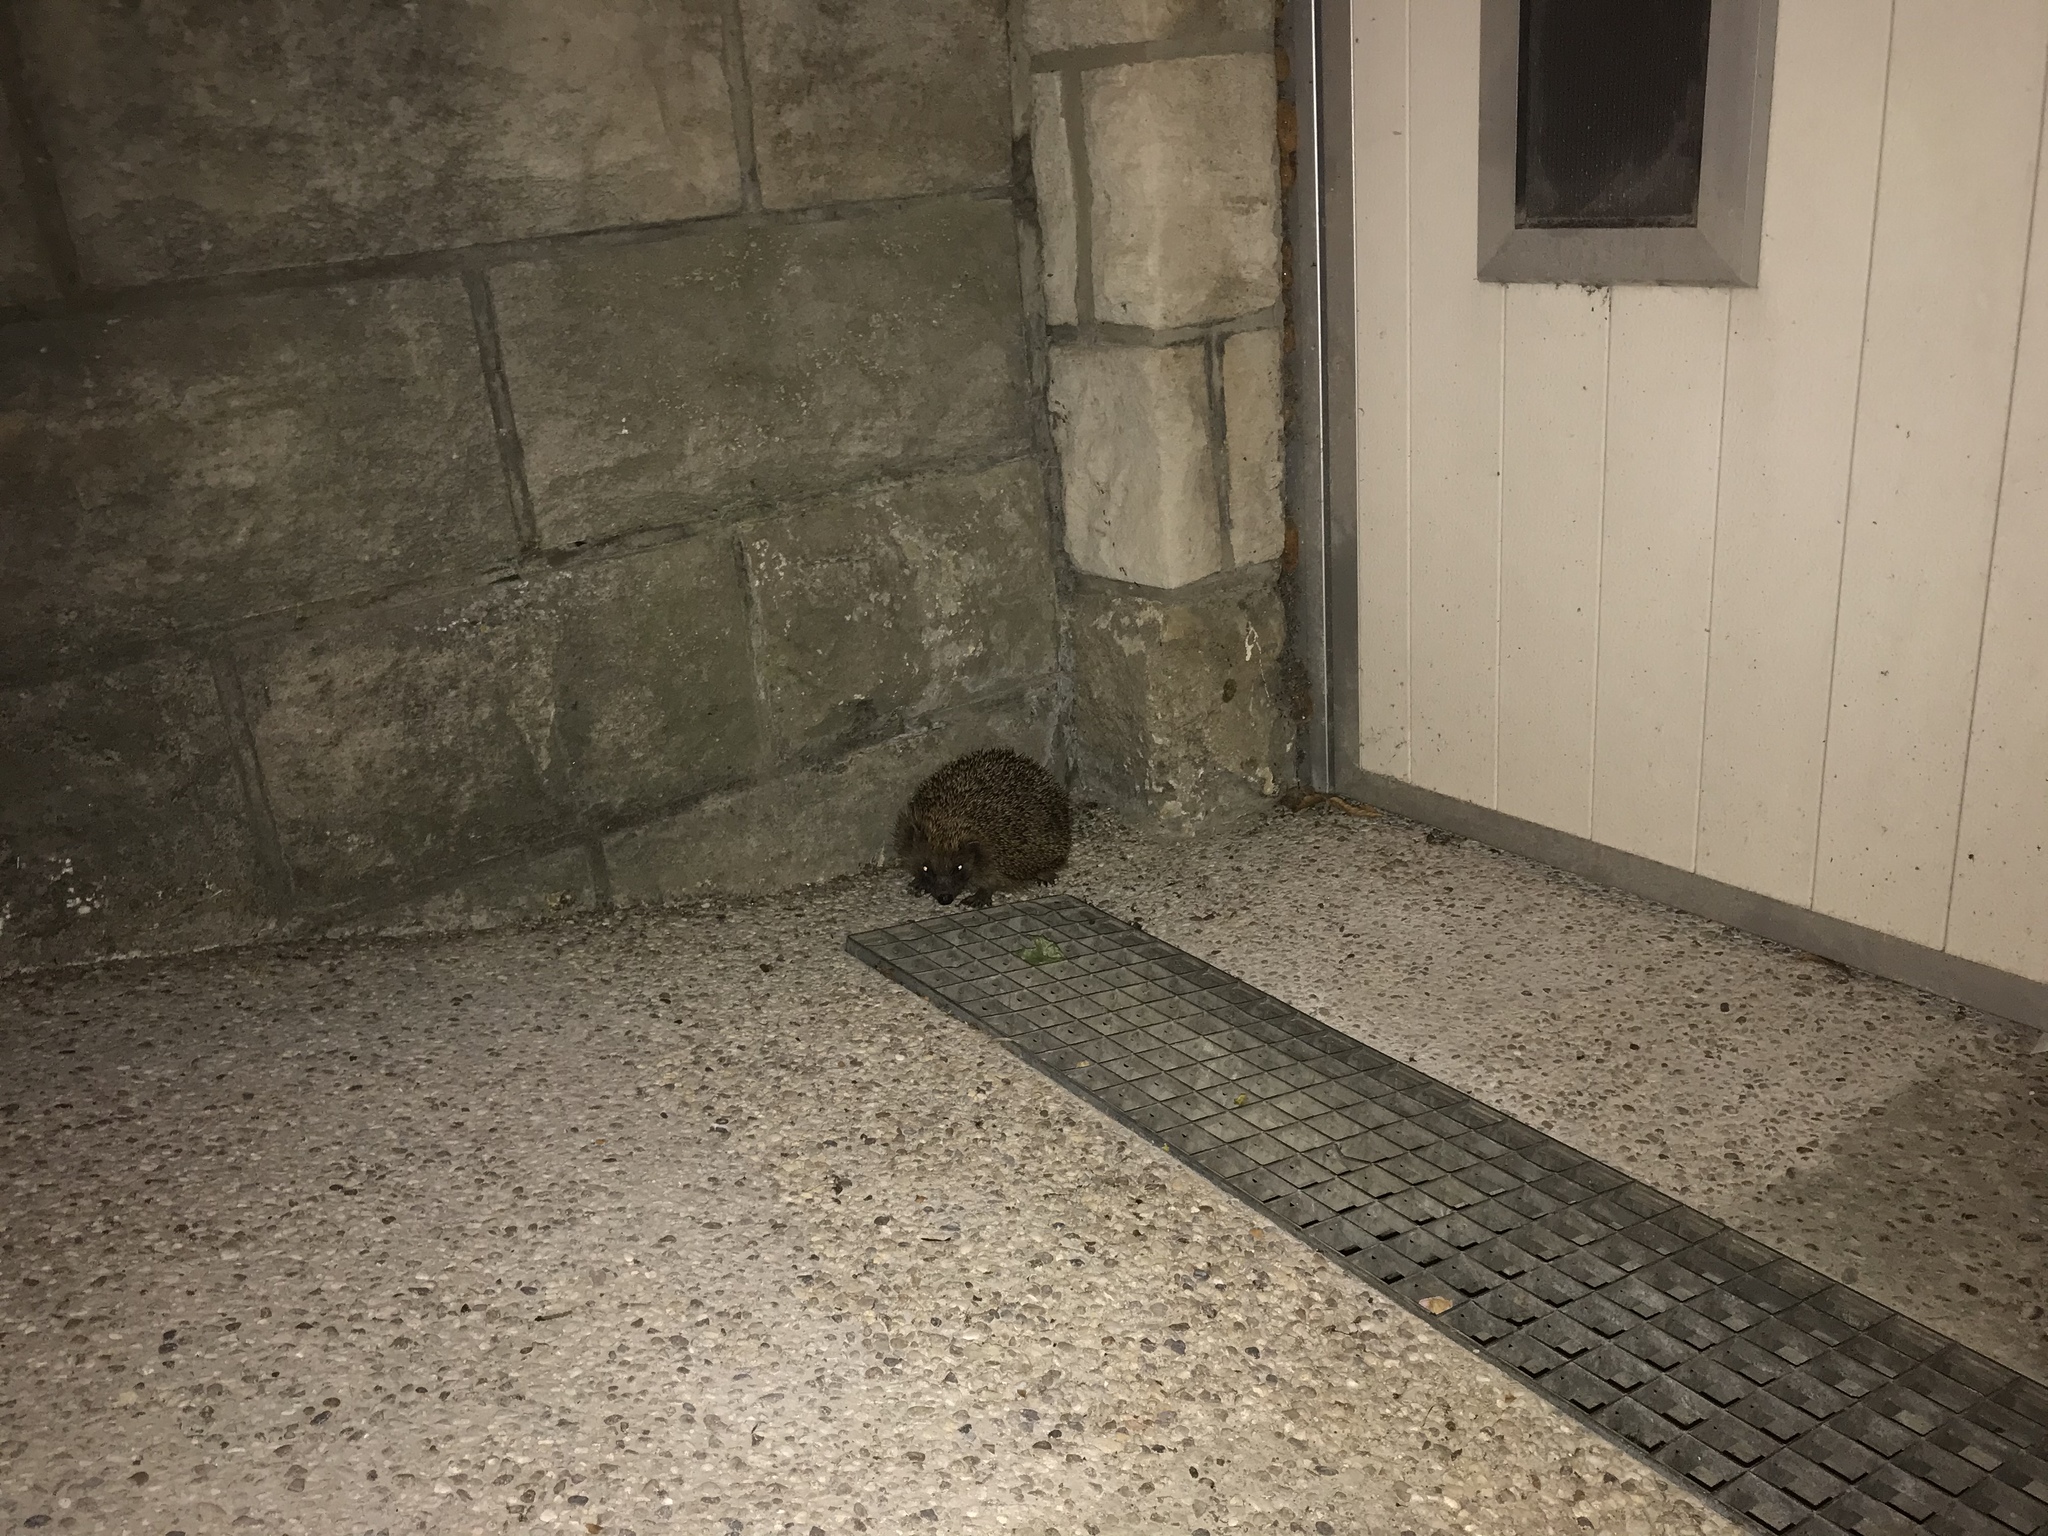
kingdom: Animalia
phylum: Chordata
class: Mammalia
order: Erinaceomorpha
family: Erinaceidae
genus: Erinaceus
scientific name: Erinaceus europaeus
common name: West european hedgehog
